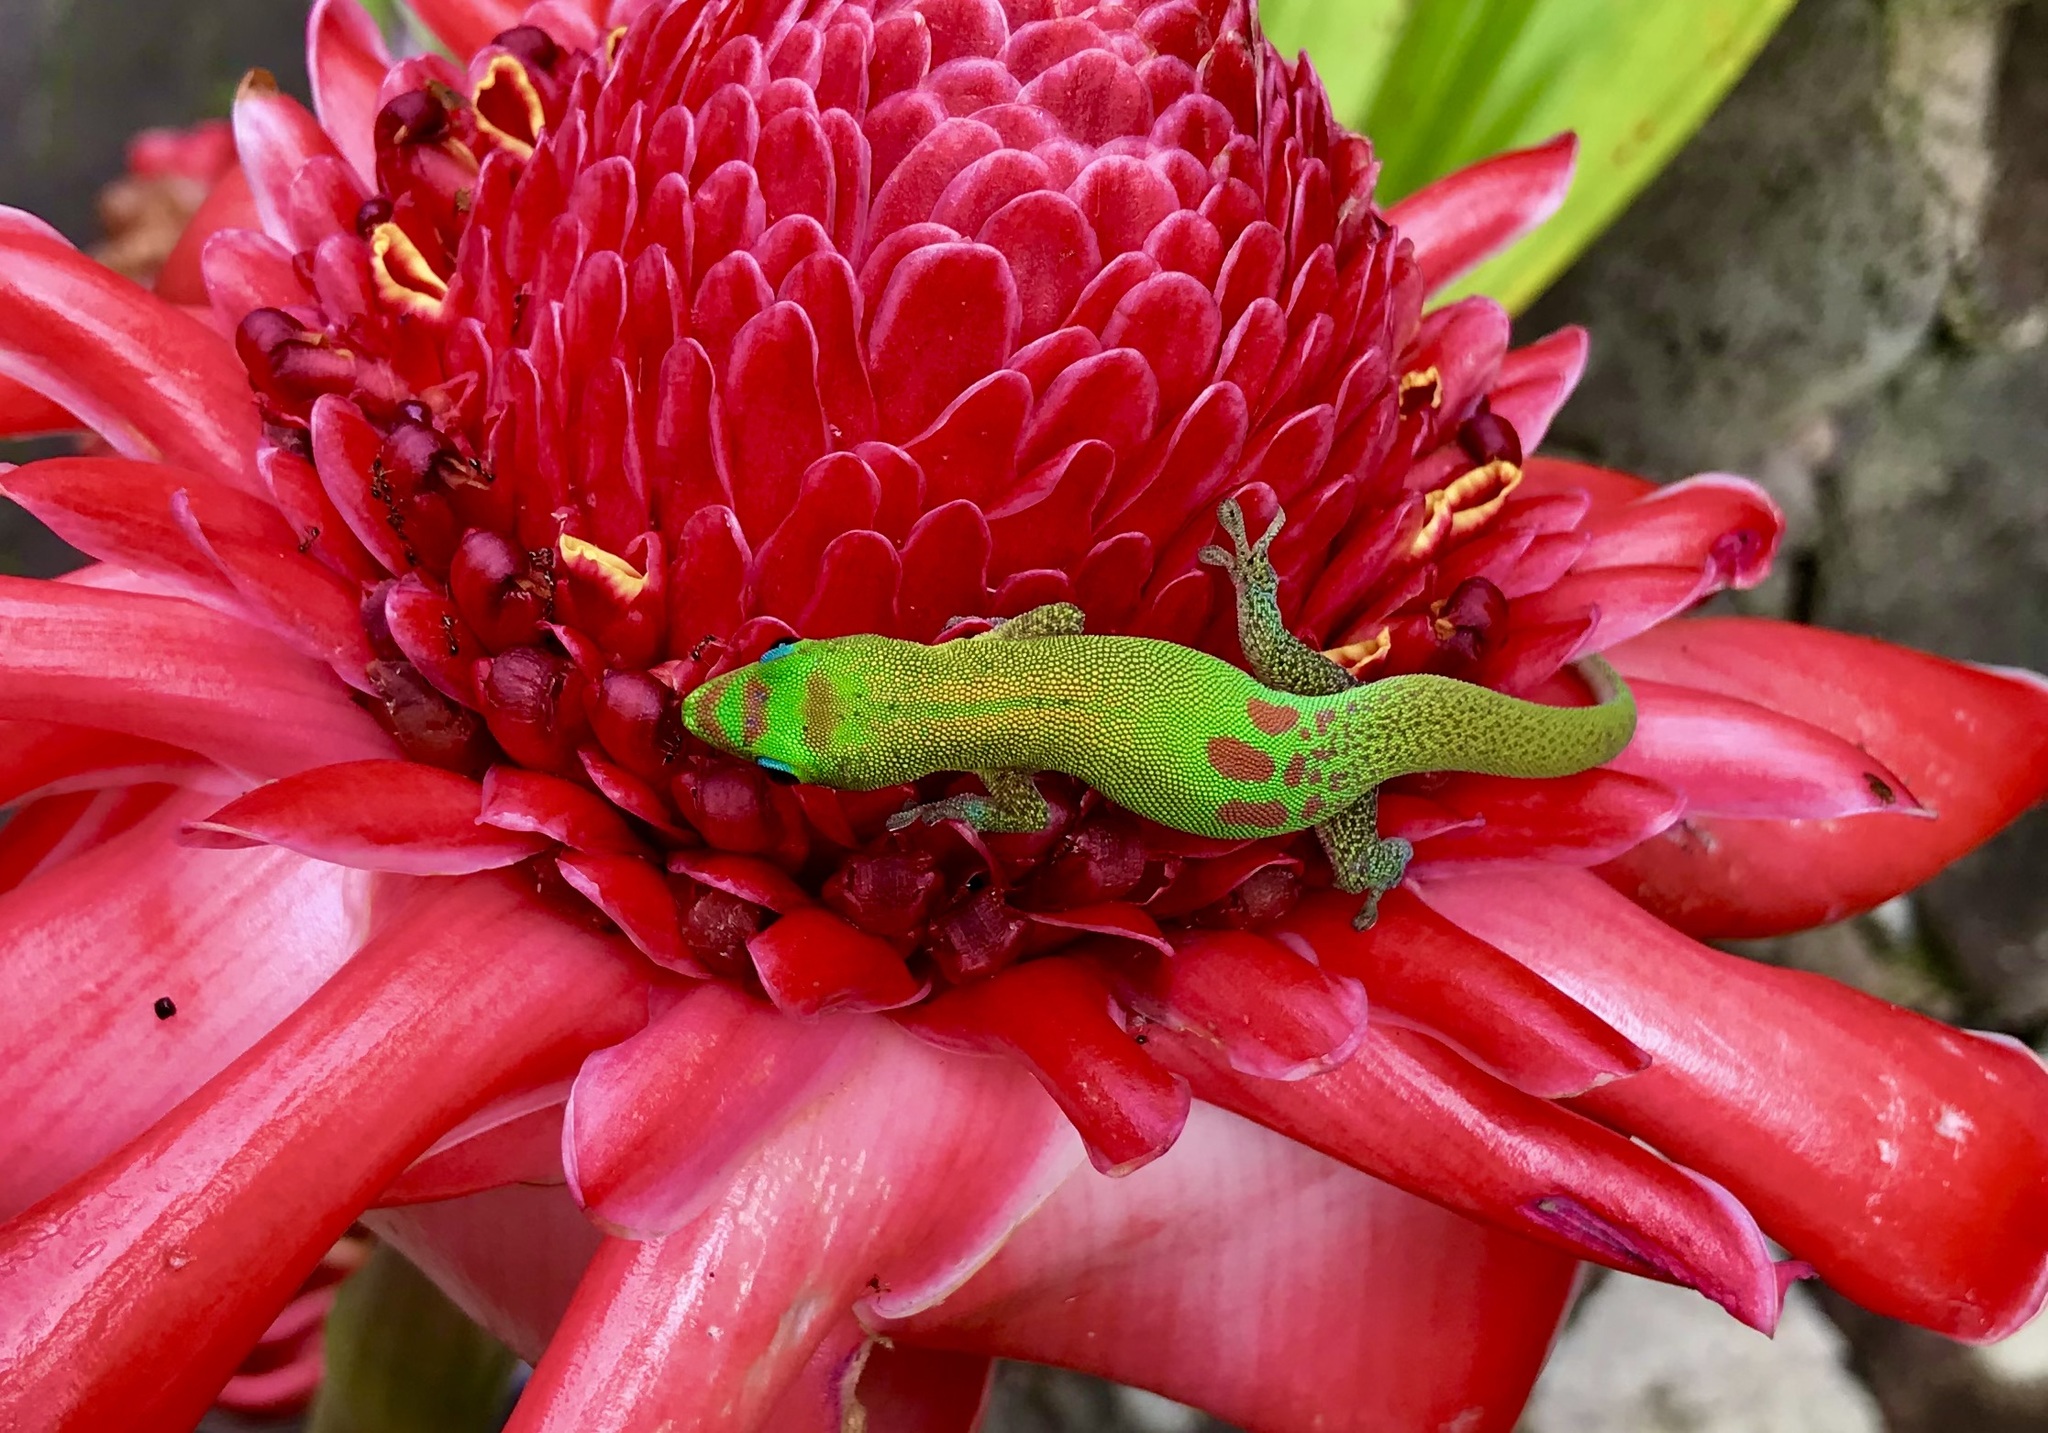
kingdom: Animalia
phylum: Chordata
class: Squamata
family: Gekkonidae
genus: Phelsuma
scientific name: Phelsuma laticauda
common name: Gold dust day gecko
